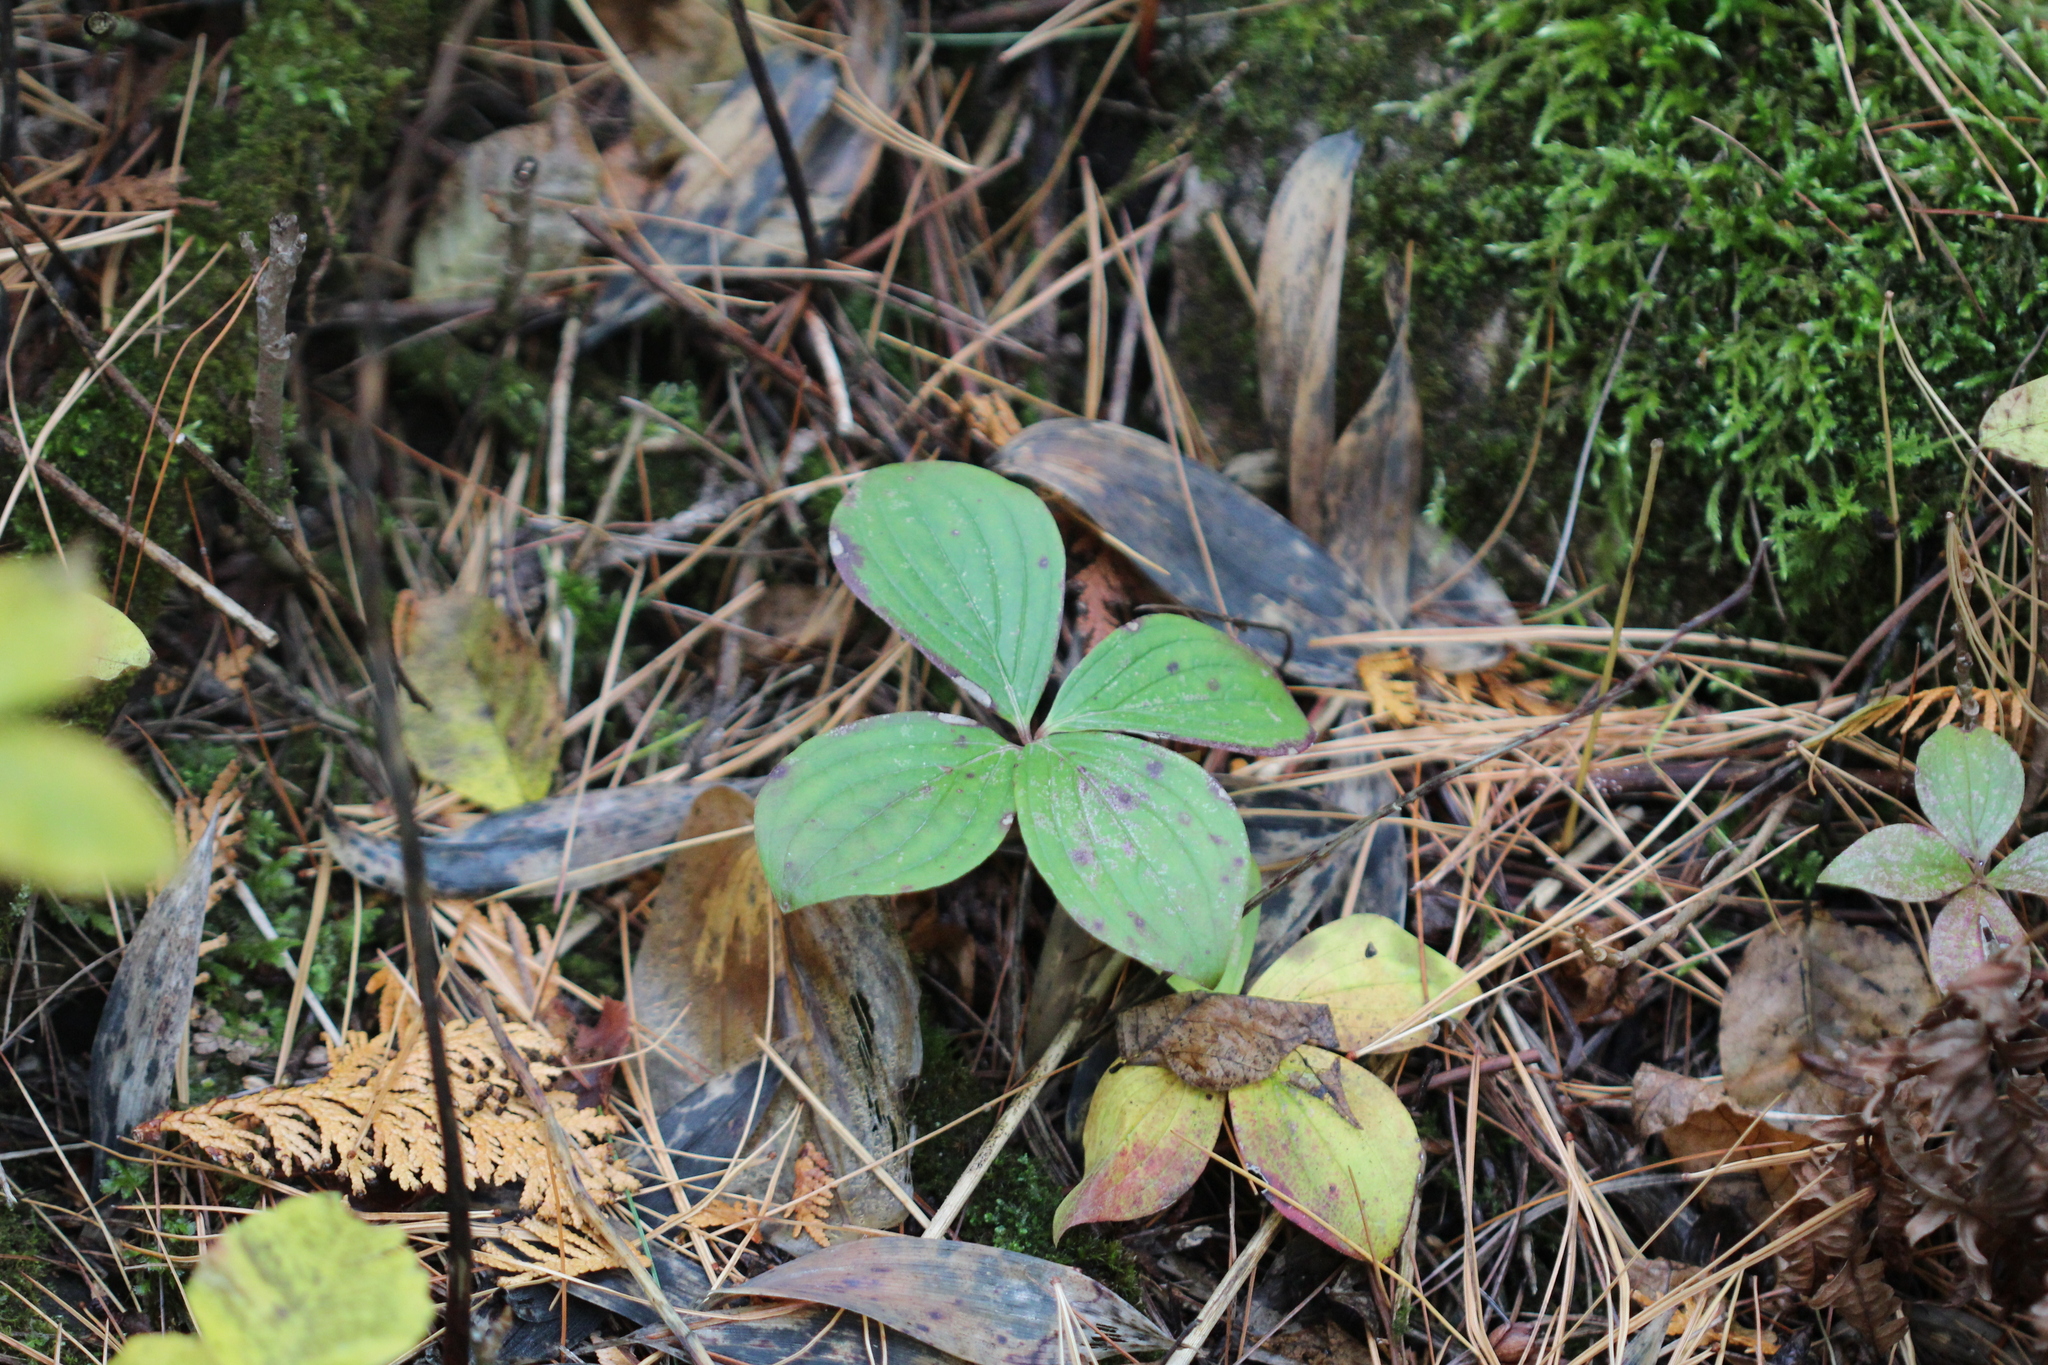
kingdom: Plantae
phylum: Tracheophyta
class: Magnoliopsida
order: Cornales
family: Cornaceae
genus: Cornus
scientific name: Cornus canadensis
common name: Creeping dogwood
